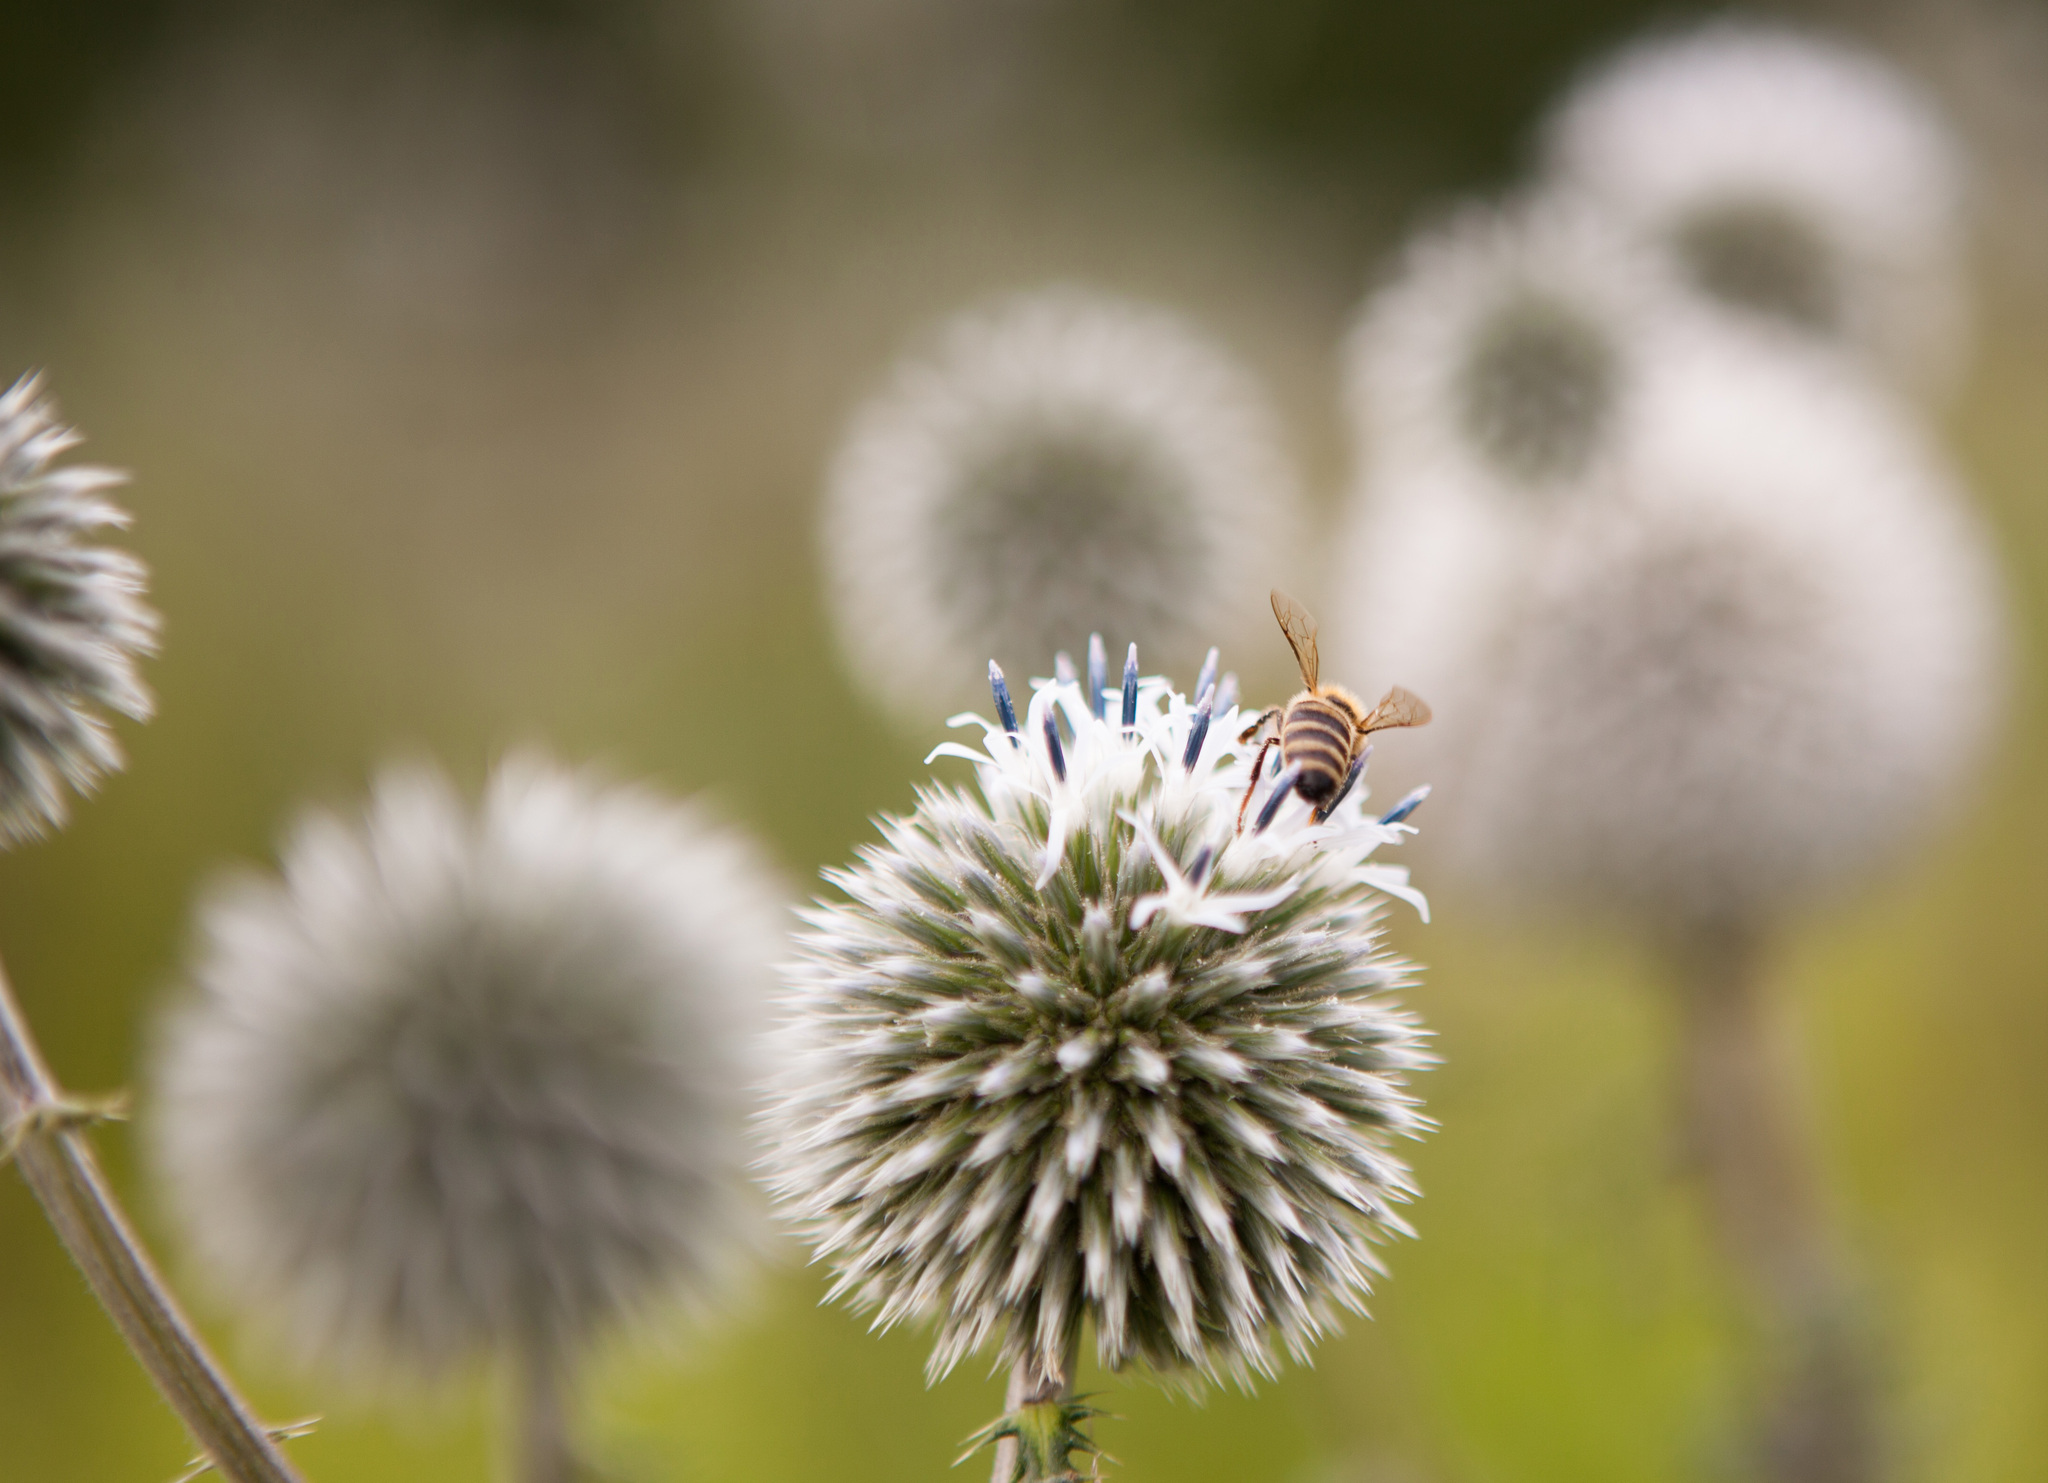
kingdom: Plantae
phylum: Tracheophyta
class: Magnoliopsida
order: Asterales
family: Asteraceae
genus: Echinops
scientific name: Echinops sphaerocephalus
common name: Glandular globe-thistle
